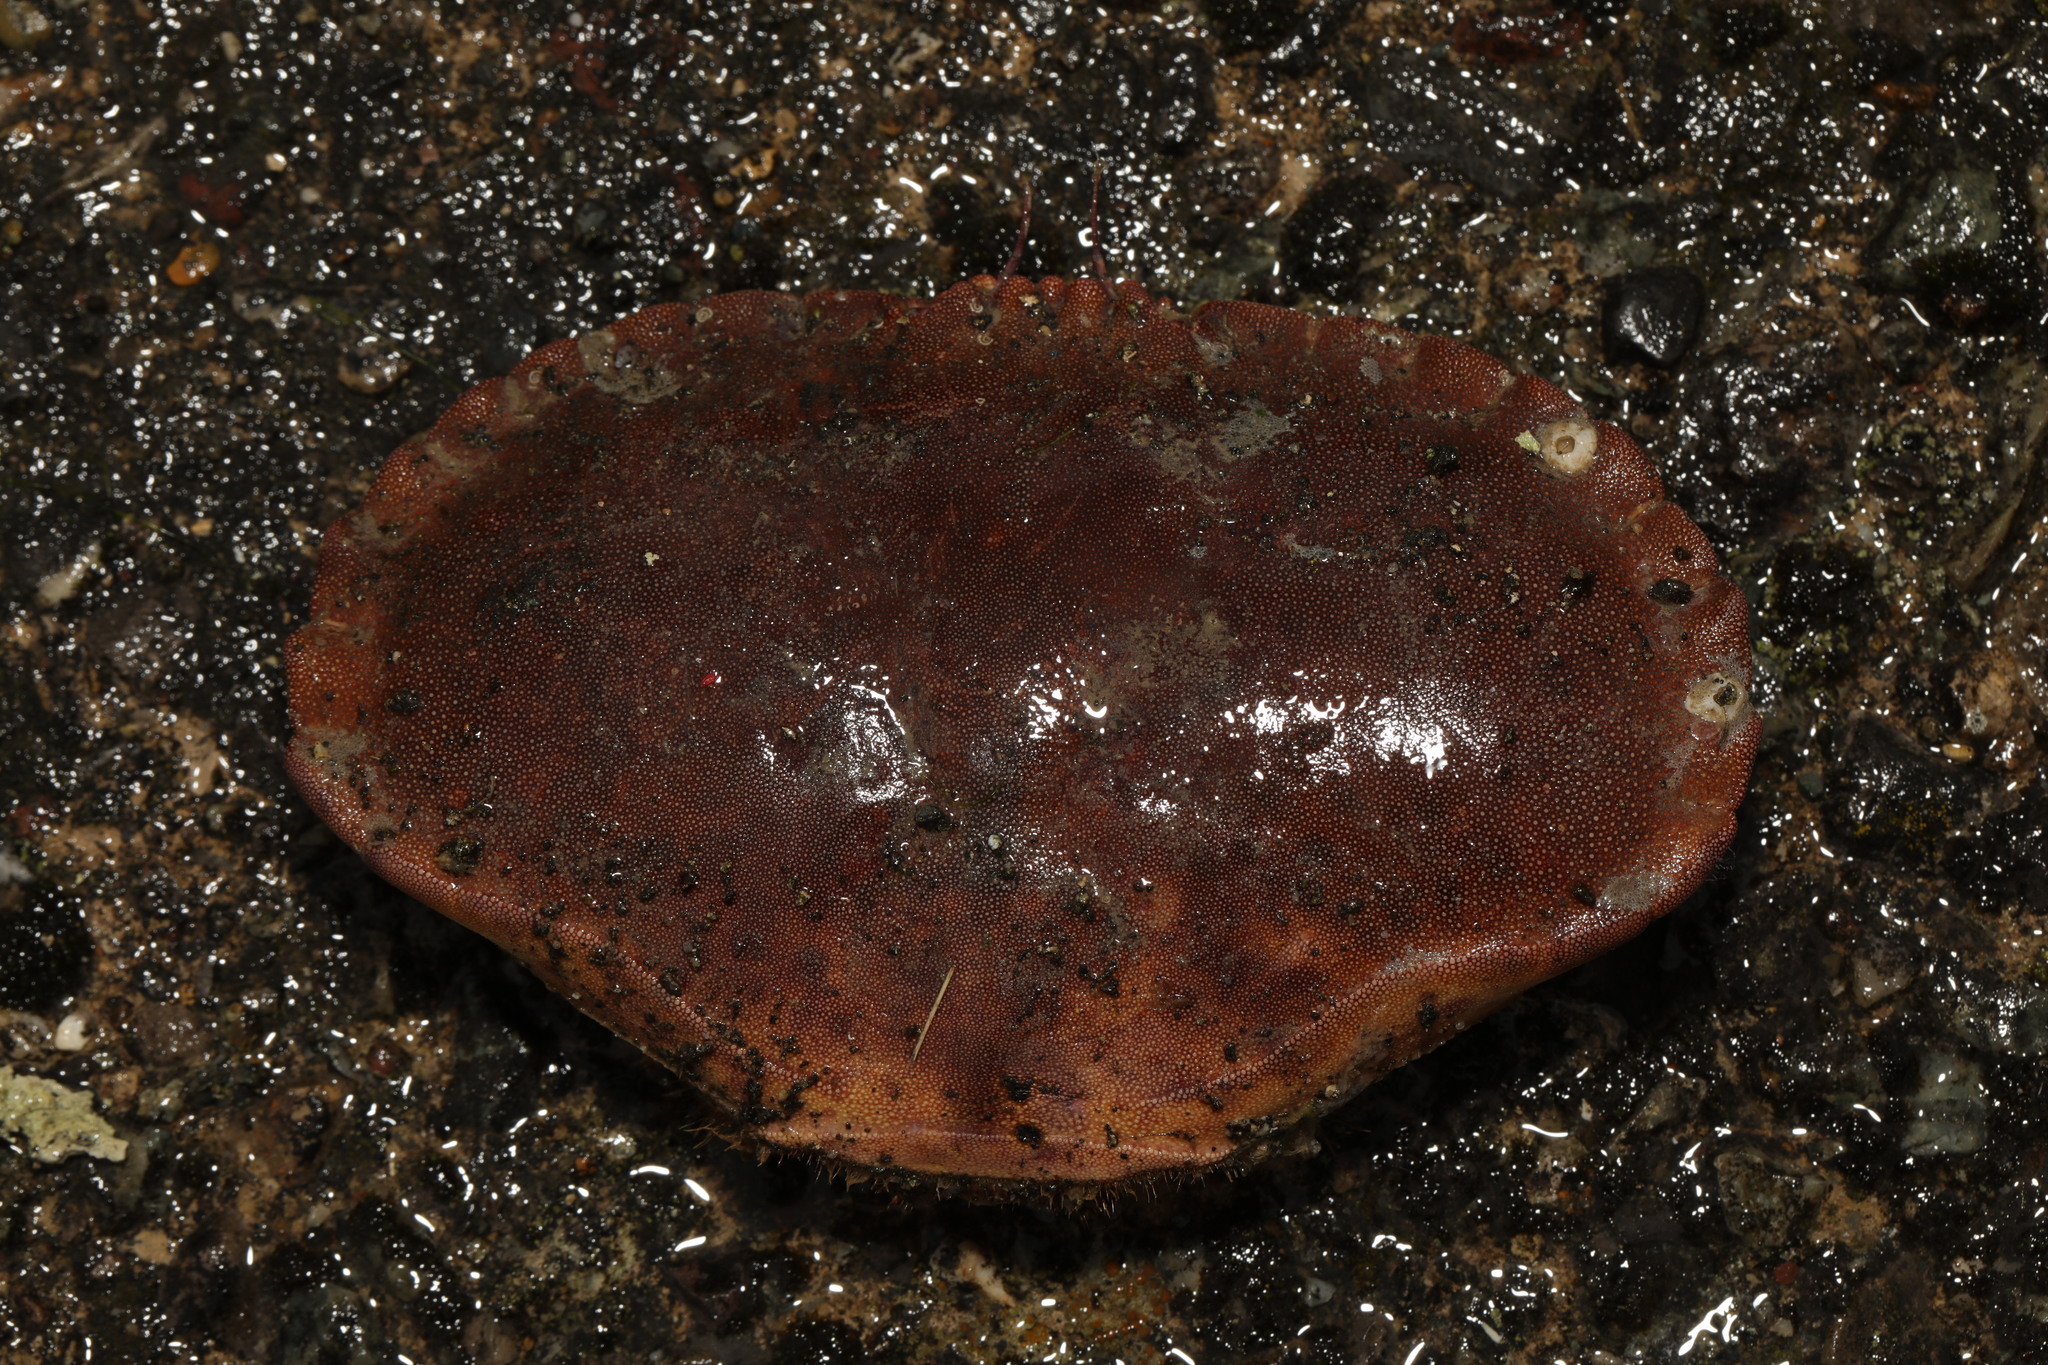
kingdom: Animalia
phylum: Arthropoda
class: Malacostraca
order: Decapoda
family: Cancridae
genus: Cancer
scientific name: Cancer pagurus
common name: Edible crab
